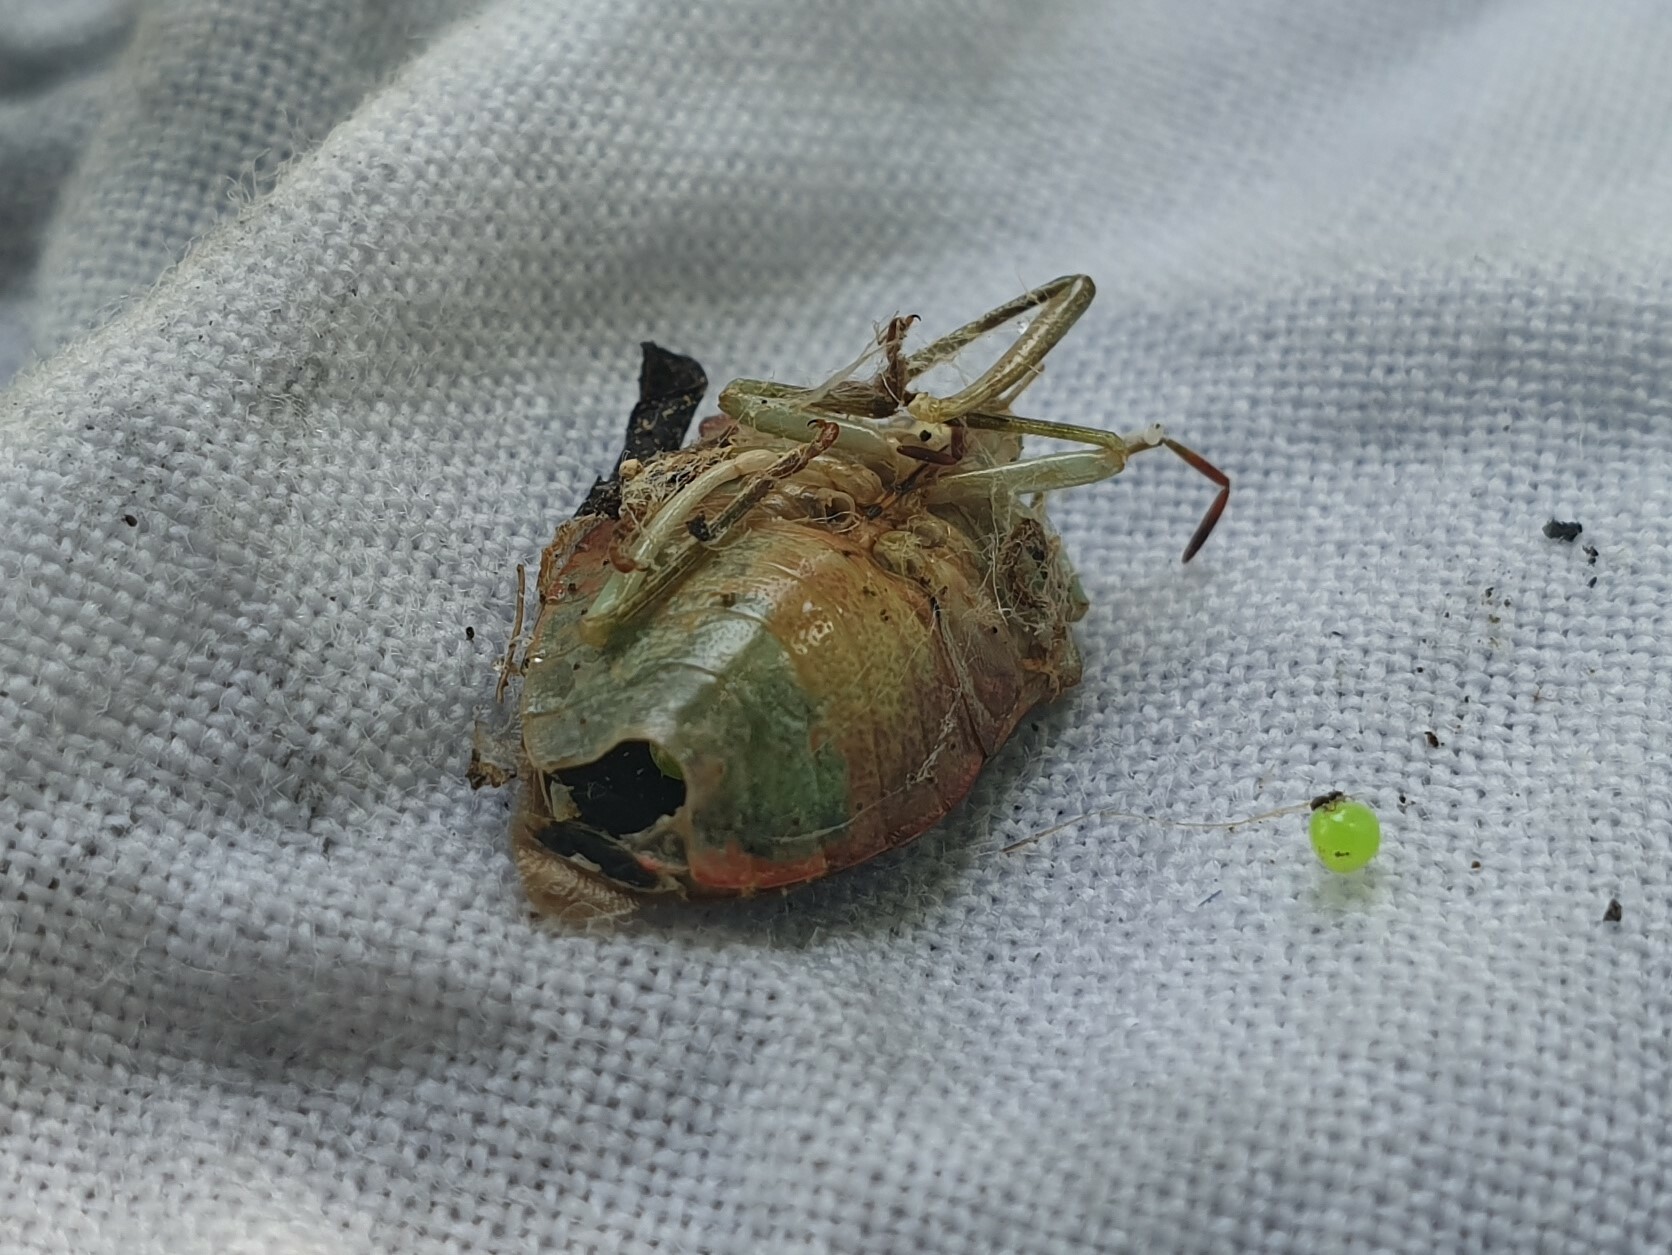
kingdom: Animalia
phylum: Arthropoda
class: Insecta
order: Hemiptera
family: Pentatomidae
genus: Palomena
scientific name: Palomena prasina
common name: Green shieldbug
